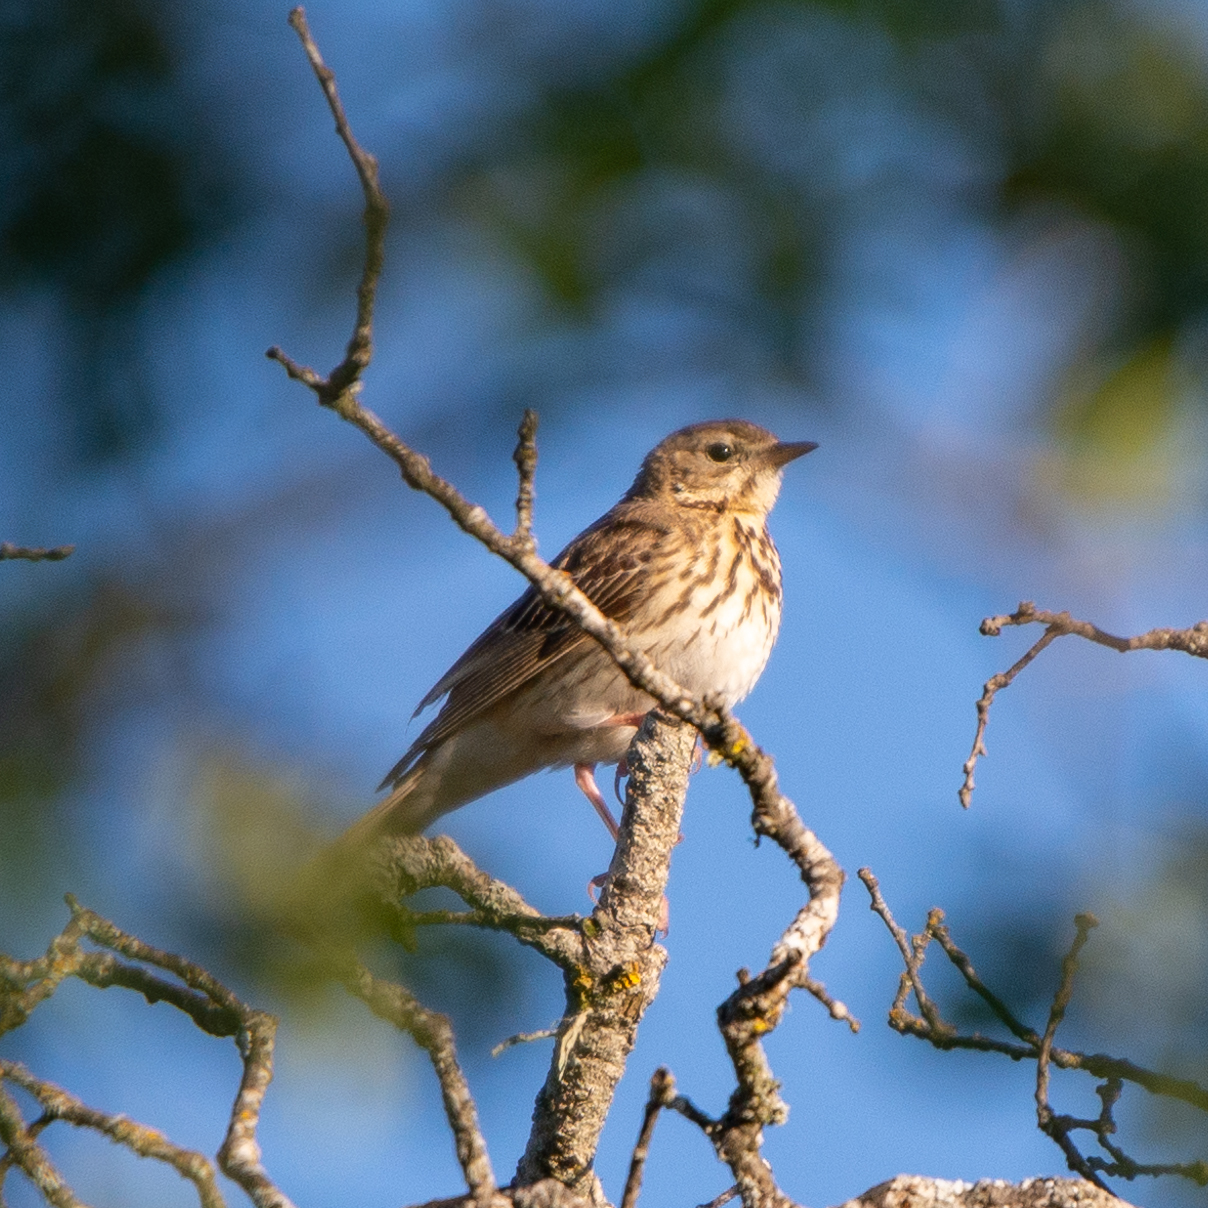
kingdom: Animalia
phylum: Chordata
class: Aves
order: Passeriformes
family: Motacillidae
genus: Anthus
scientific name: Anthus trivialis
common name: Tree pipit
